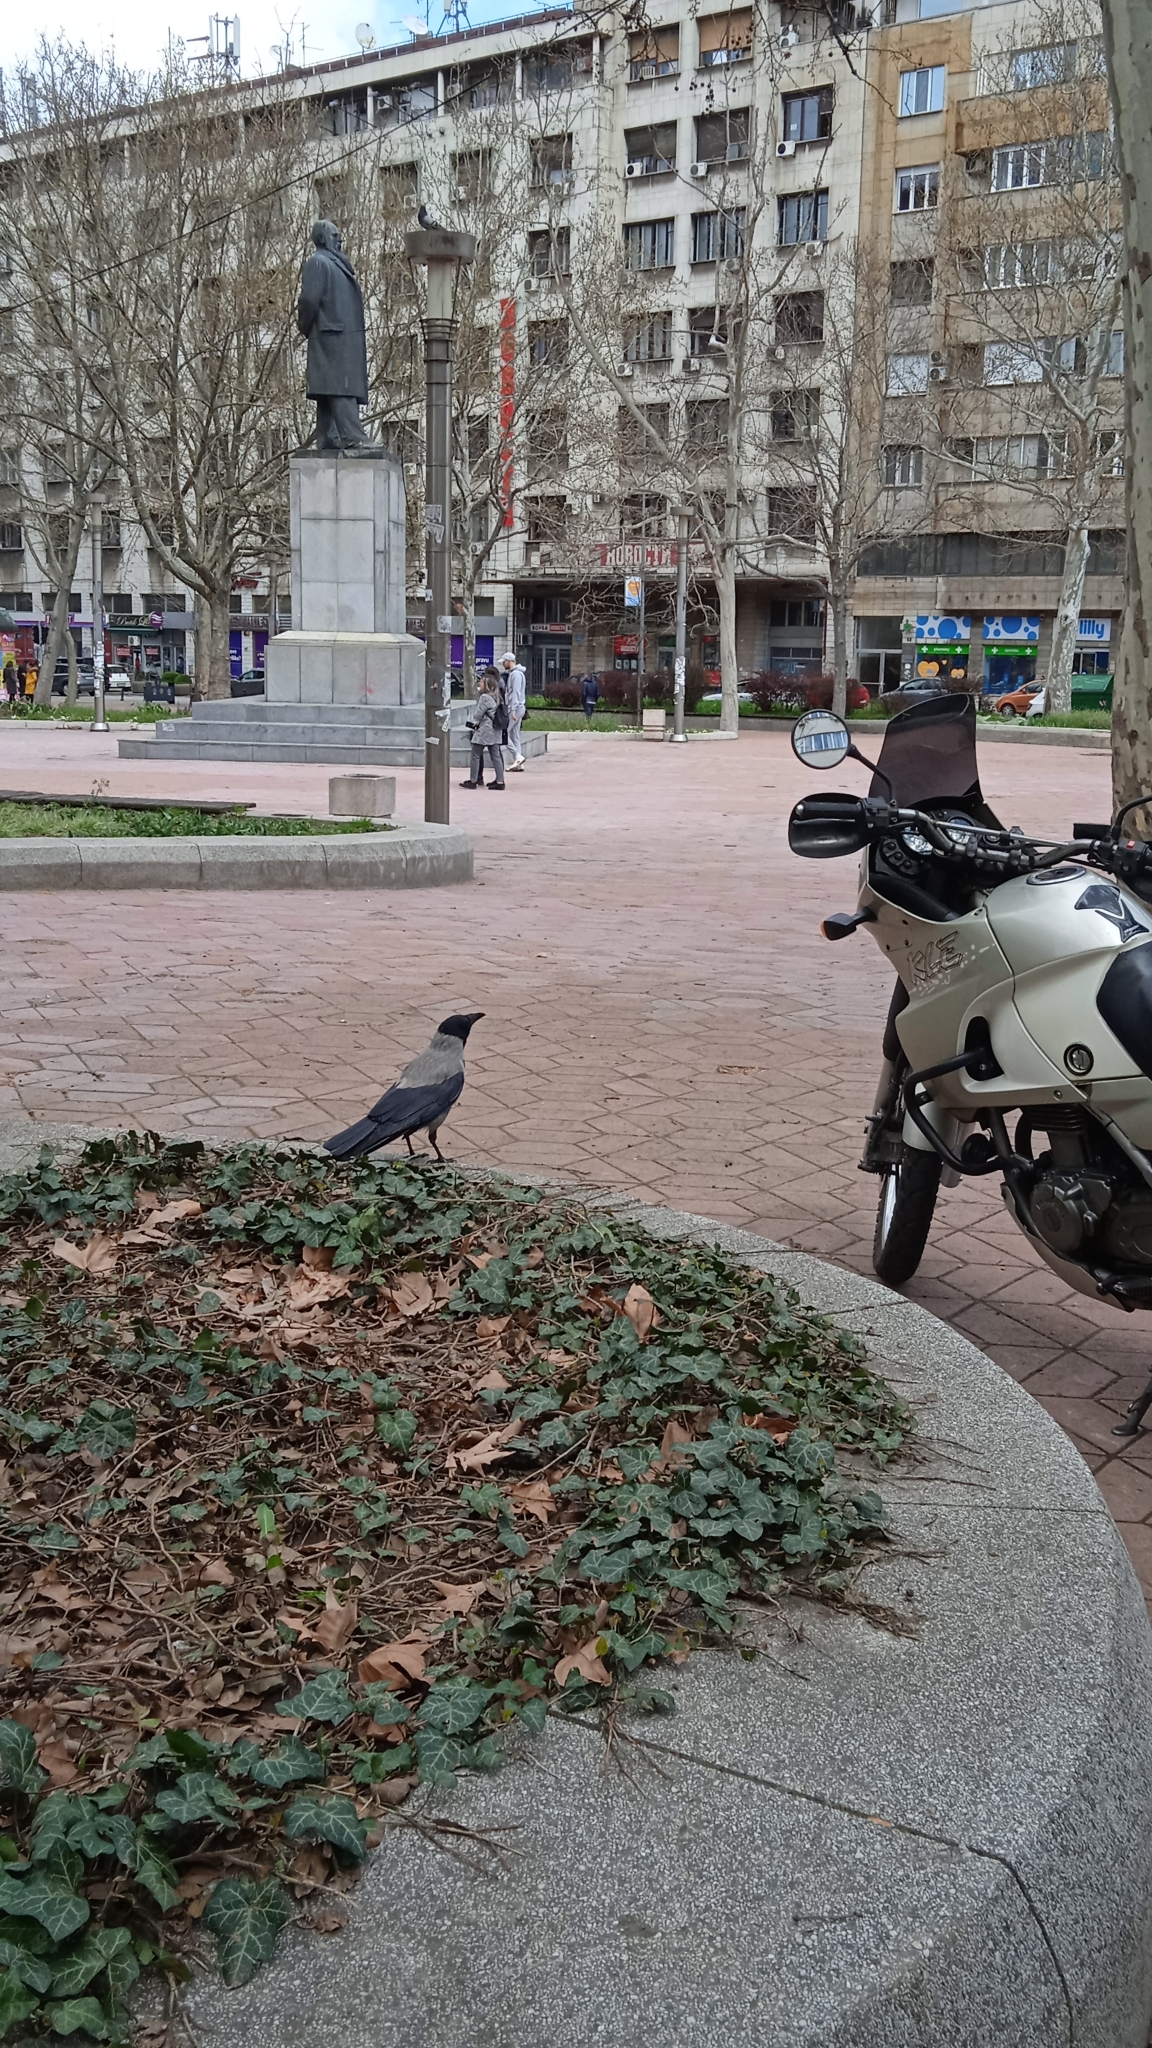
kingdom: Animalia
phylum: Chordata
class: Aves
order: Passeriformes
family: Corvidae
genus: Corvus
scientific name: Corvus cornix
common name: Hooded crow
